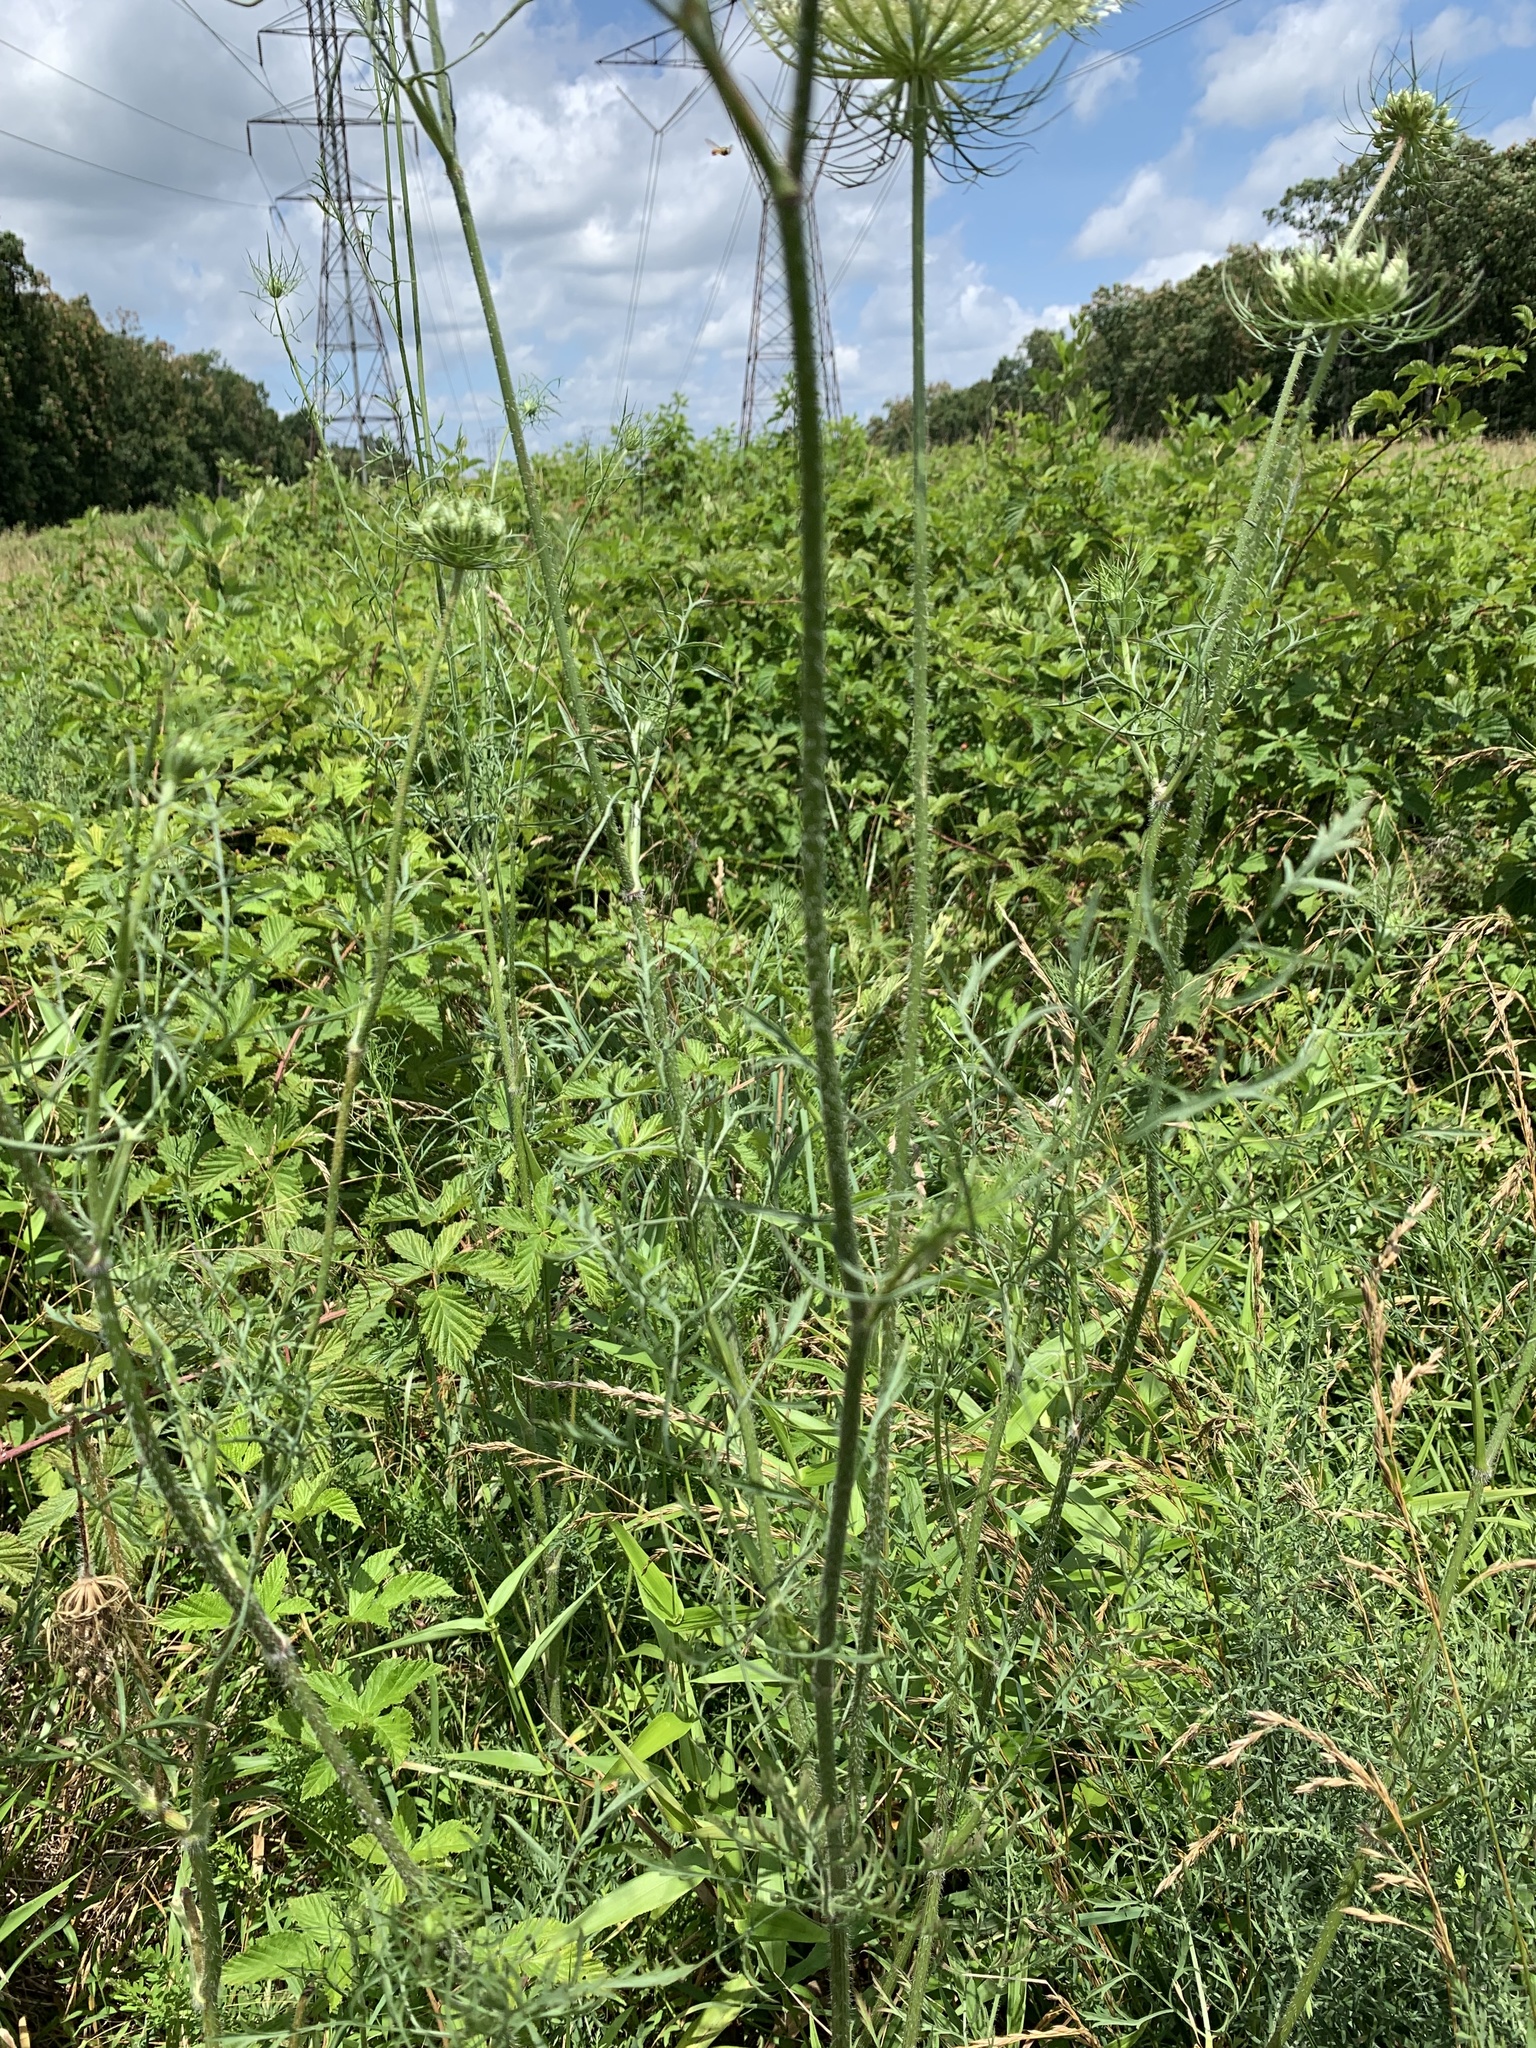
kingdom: Plantae
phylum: Tracheophyta
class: Magnoliopsida
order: Apiales
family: Apiaceae
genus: Daucus
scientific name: Daucus carota
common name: Wild carrot
